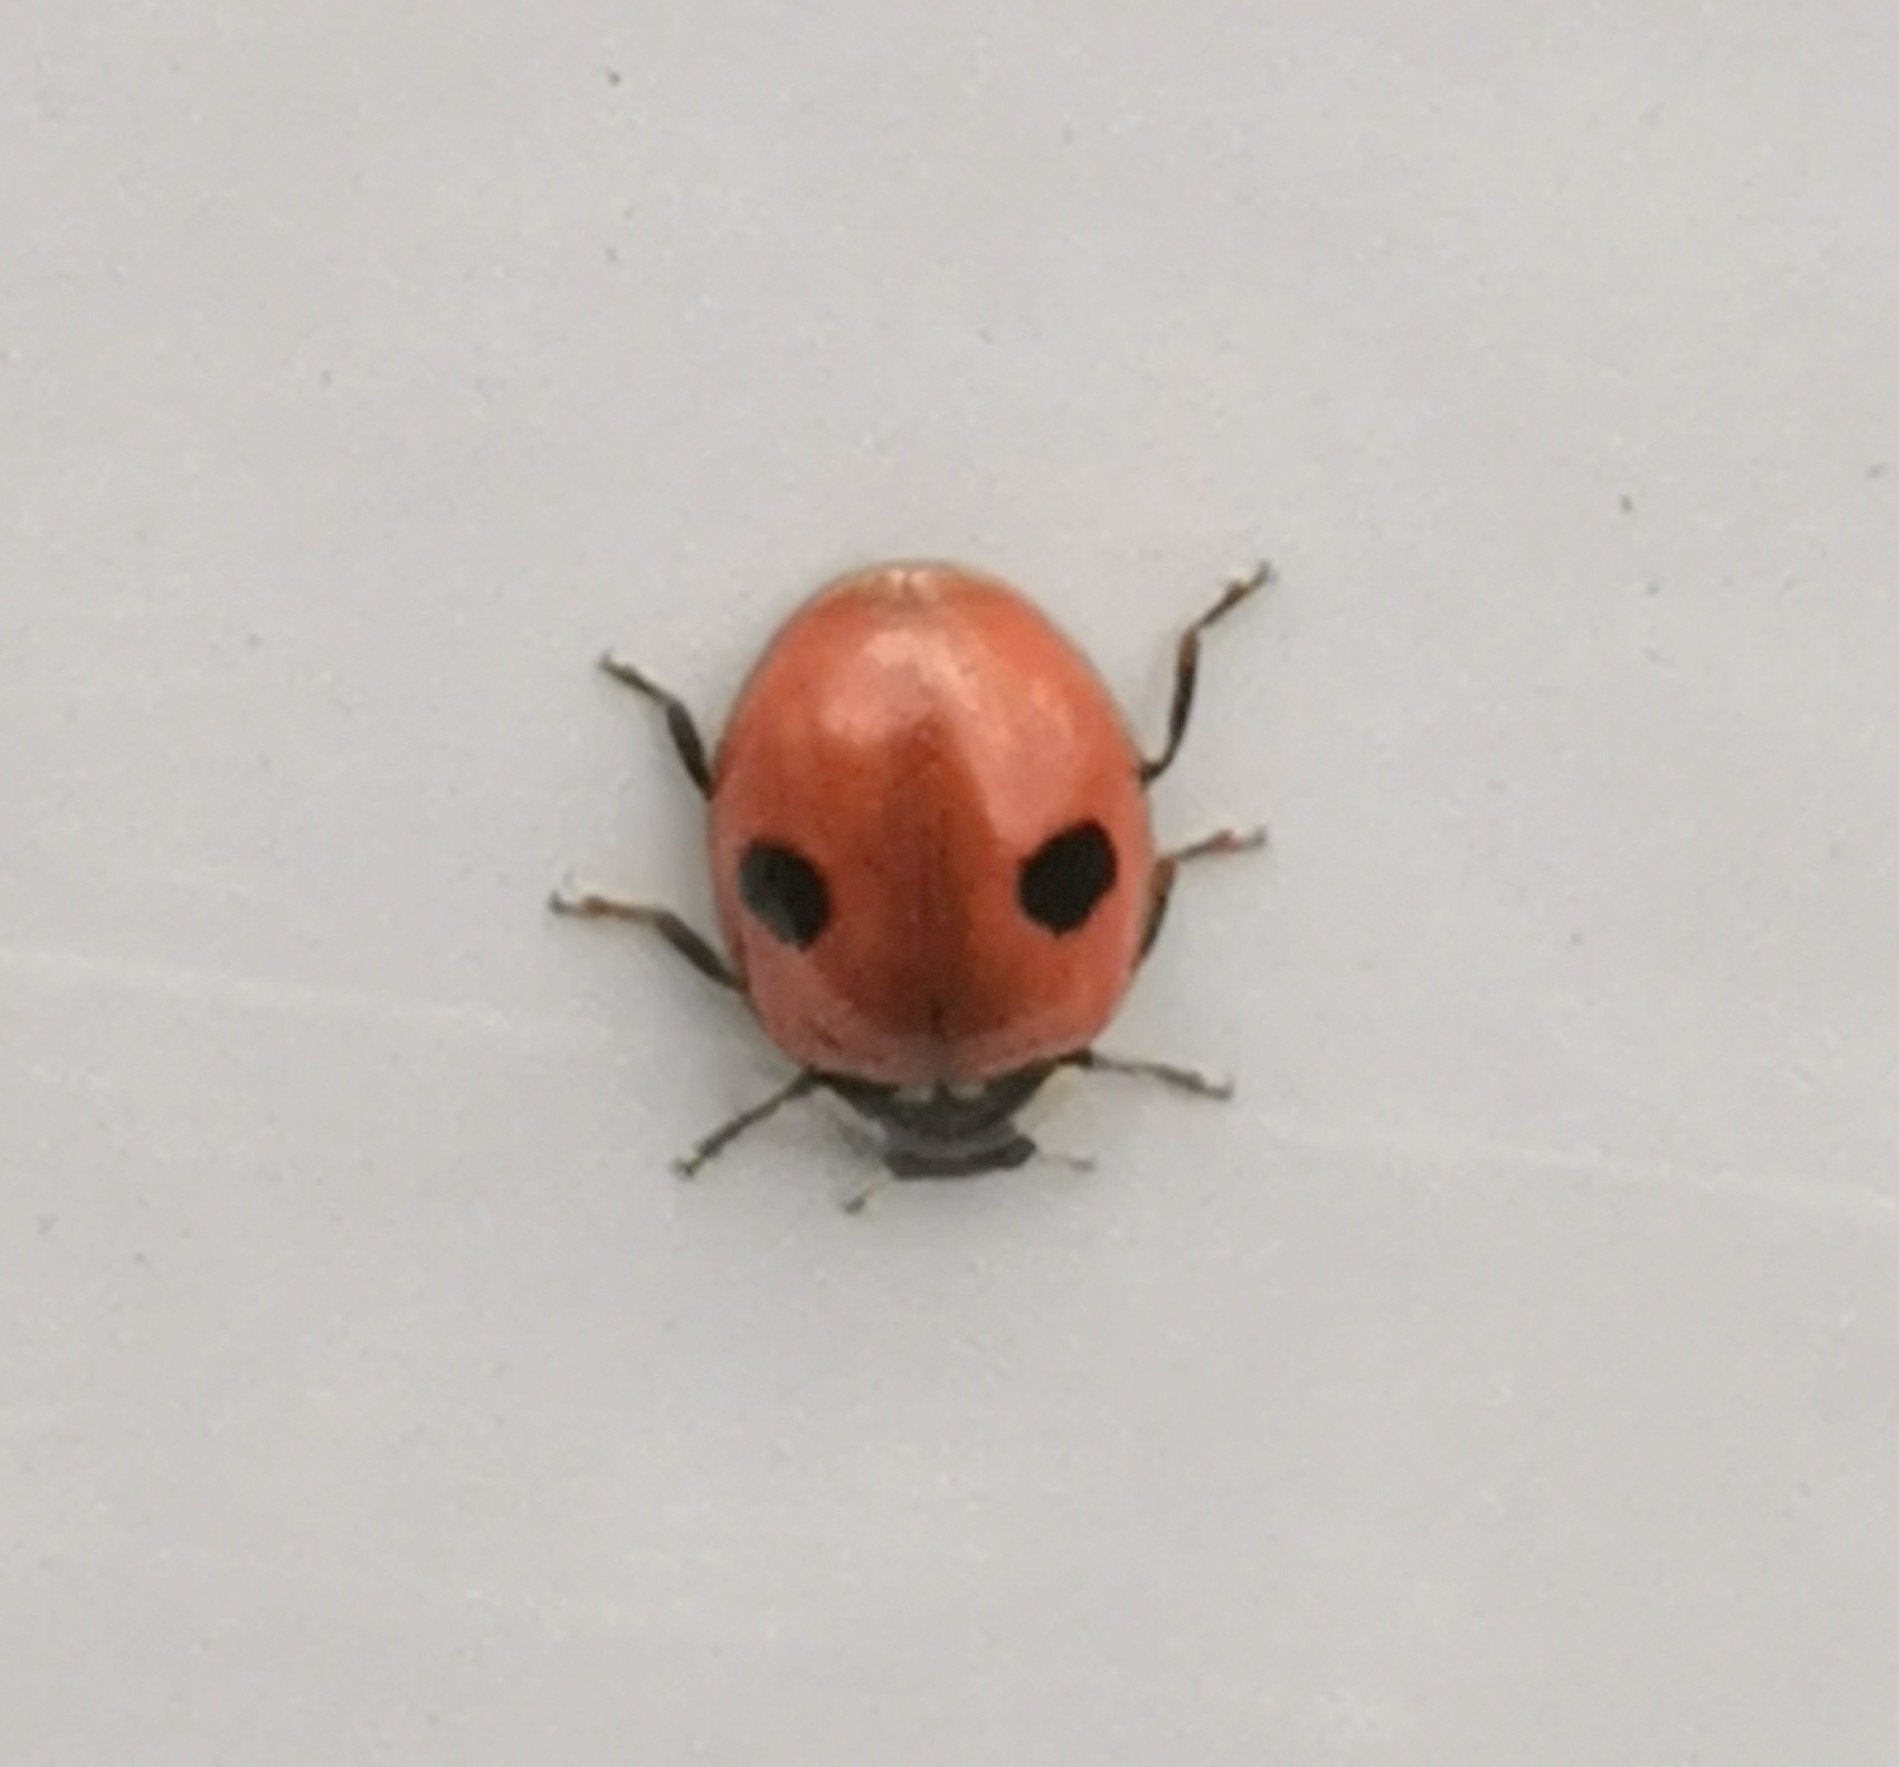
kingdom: Animalia
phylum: Arthropoda
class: Insecta
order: Coleoptera
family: Coccinellidae
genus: Adalia
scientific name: Adalia bipunctata
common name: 2-spot ladybird
